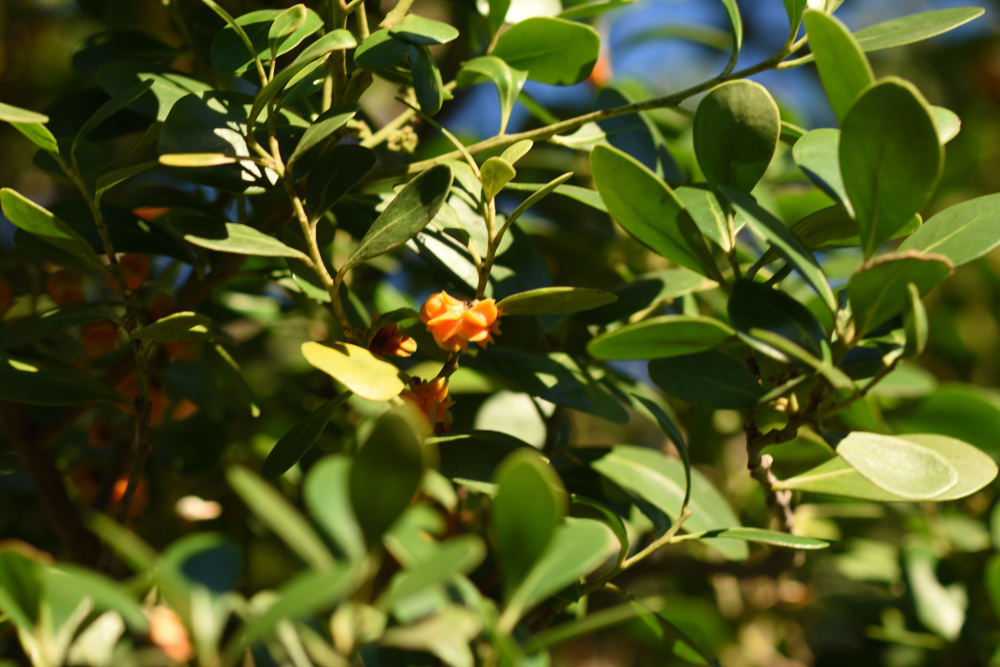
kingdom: Plantae
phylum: Tracheophyta
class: Magnoliopsida
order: Celastrales
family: Celastraceae
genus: Pterocelastrus
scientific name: Pterocelastrus tricuspidatus
